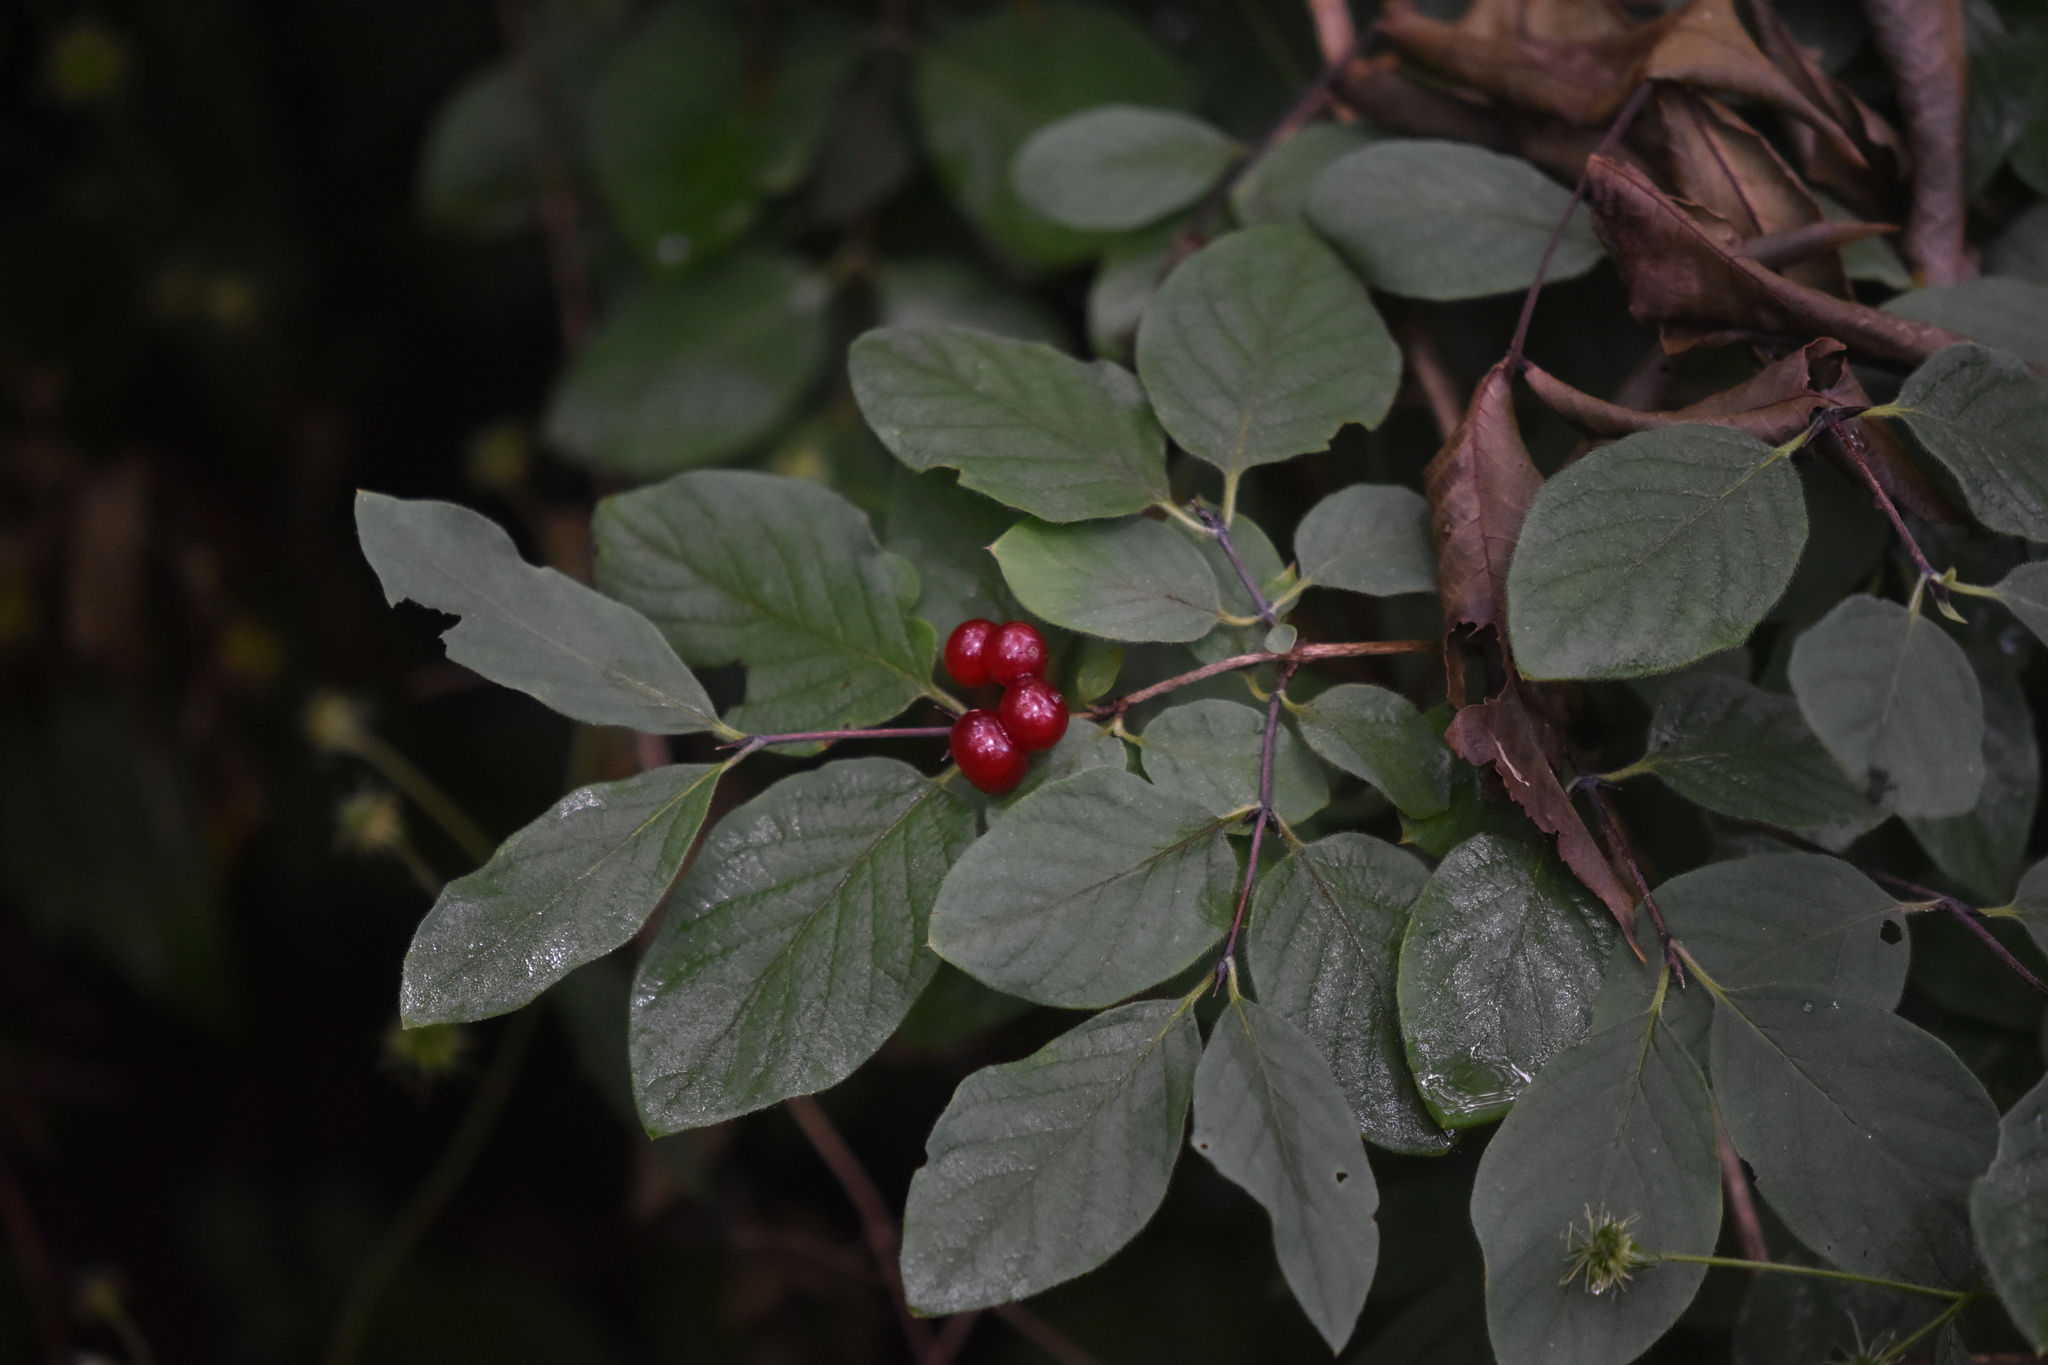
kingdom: Plantae
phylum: Tracheophyta
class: Magnoliopsida
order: Dipsacales
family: Caprifoliaceae
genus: Lonicera
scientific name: Lonicera xylosteum
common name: Fly honeysuckle
